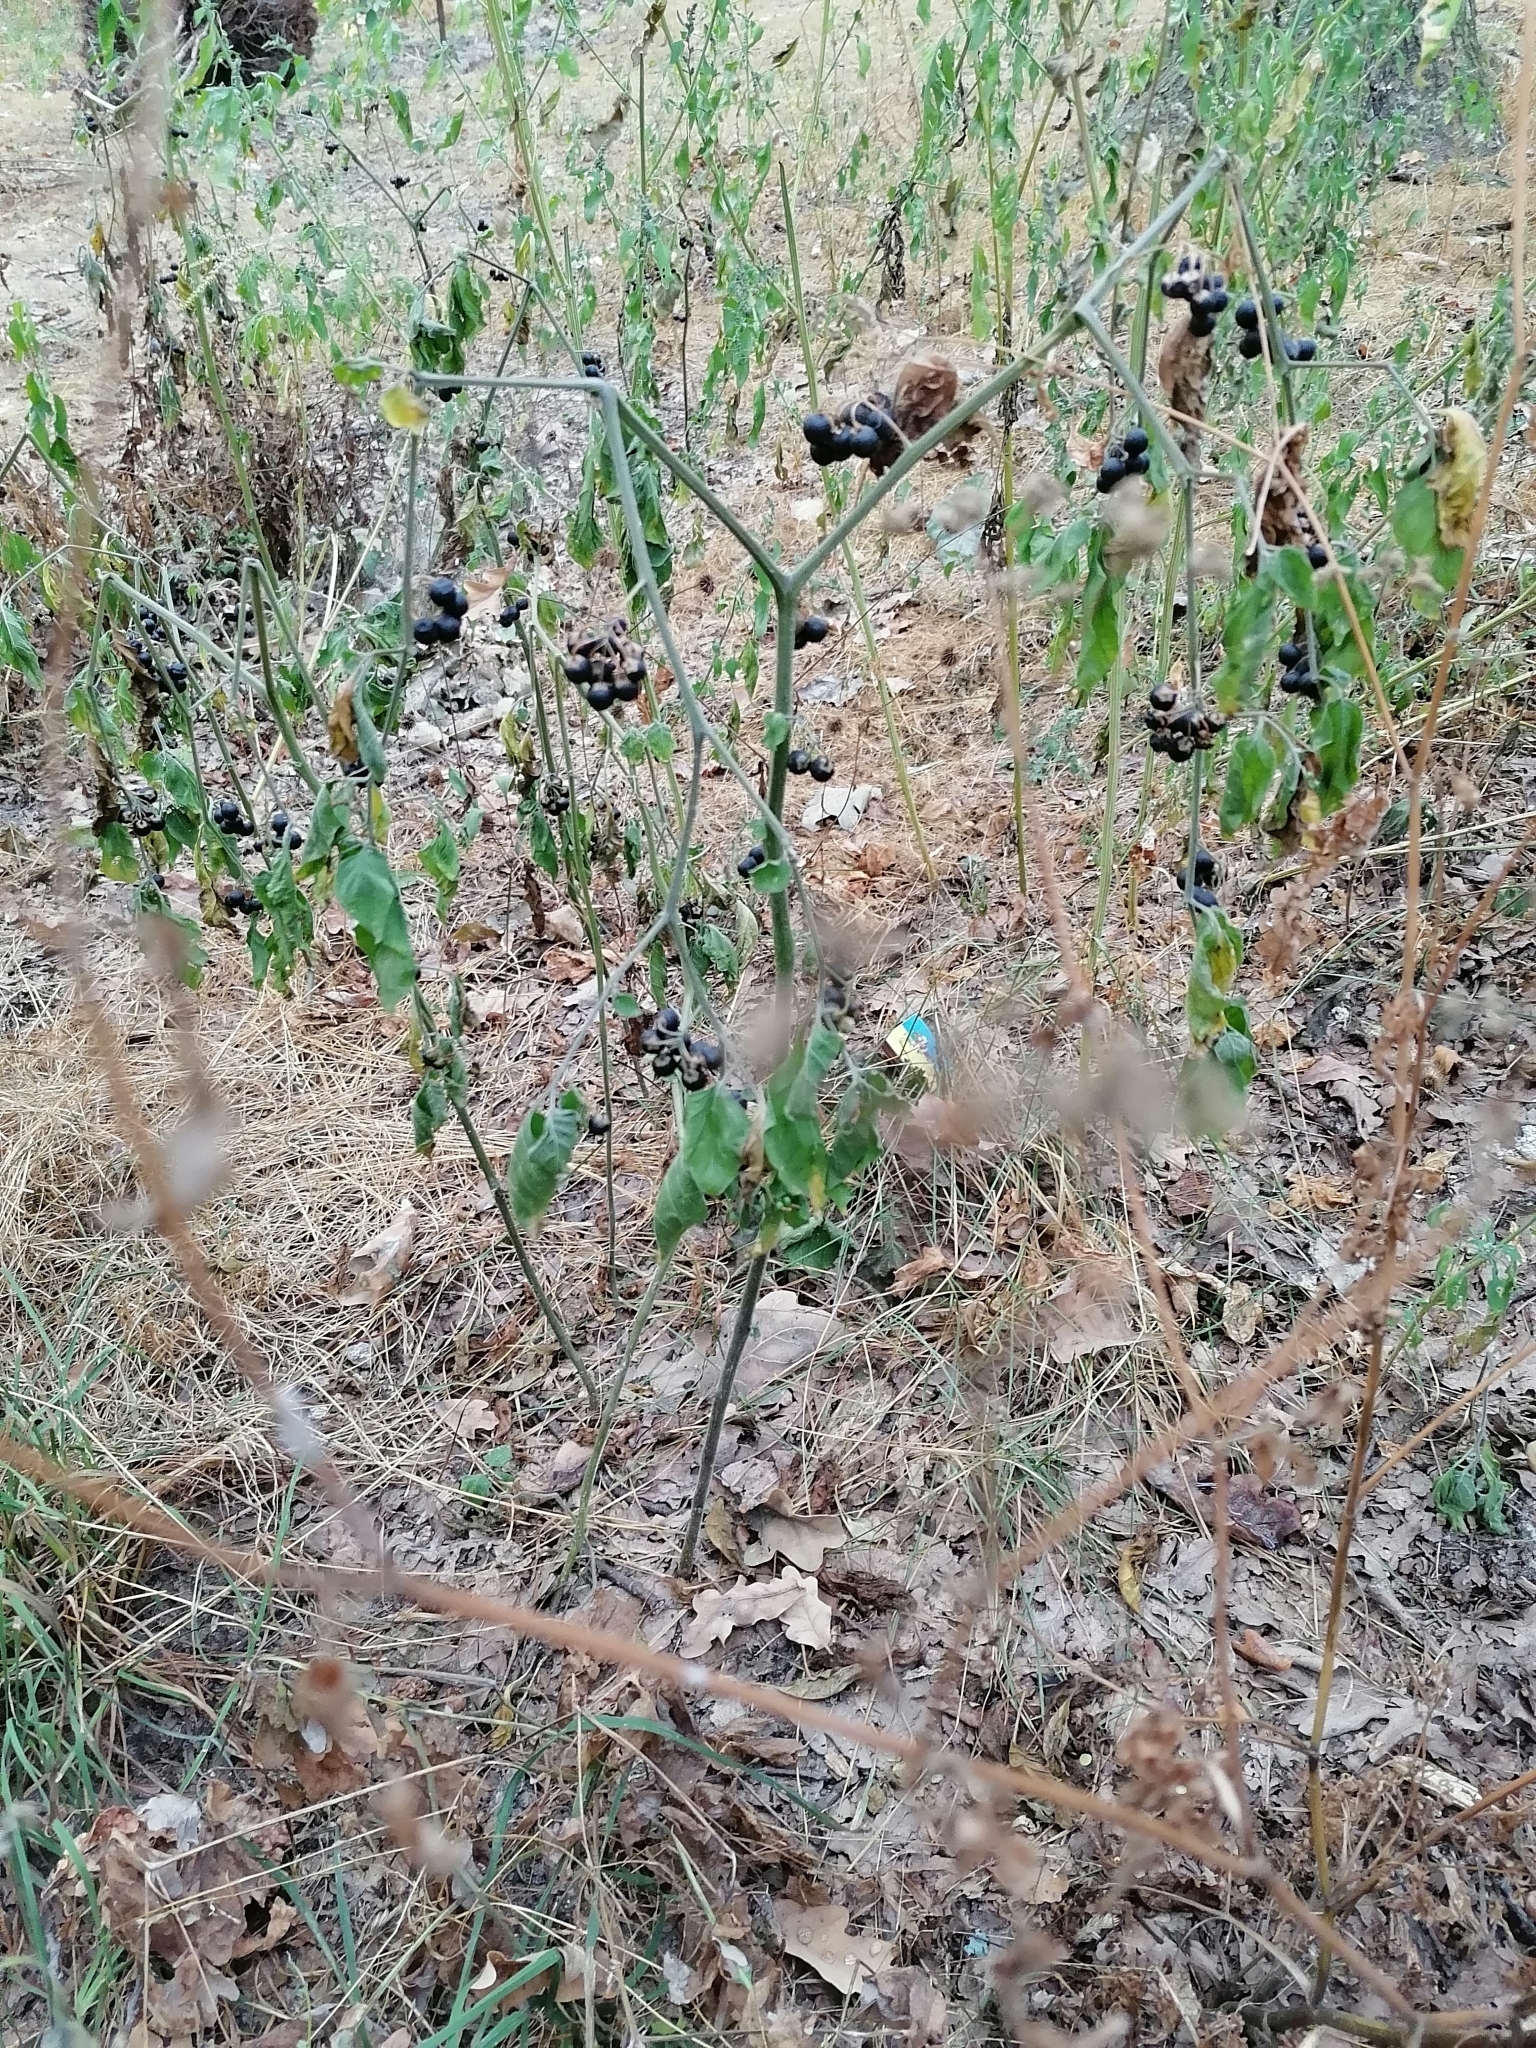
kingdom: Plantae
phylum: Tracheophyta
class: Magnoliopsida
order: Solanales
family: Solanaceae
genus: Solanum
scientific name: Solanum nigrum
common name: Black nightshade
